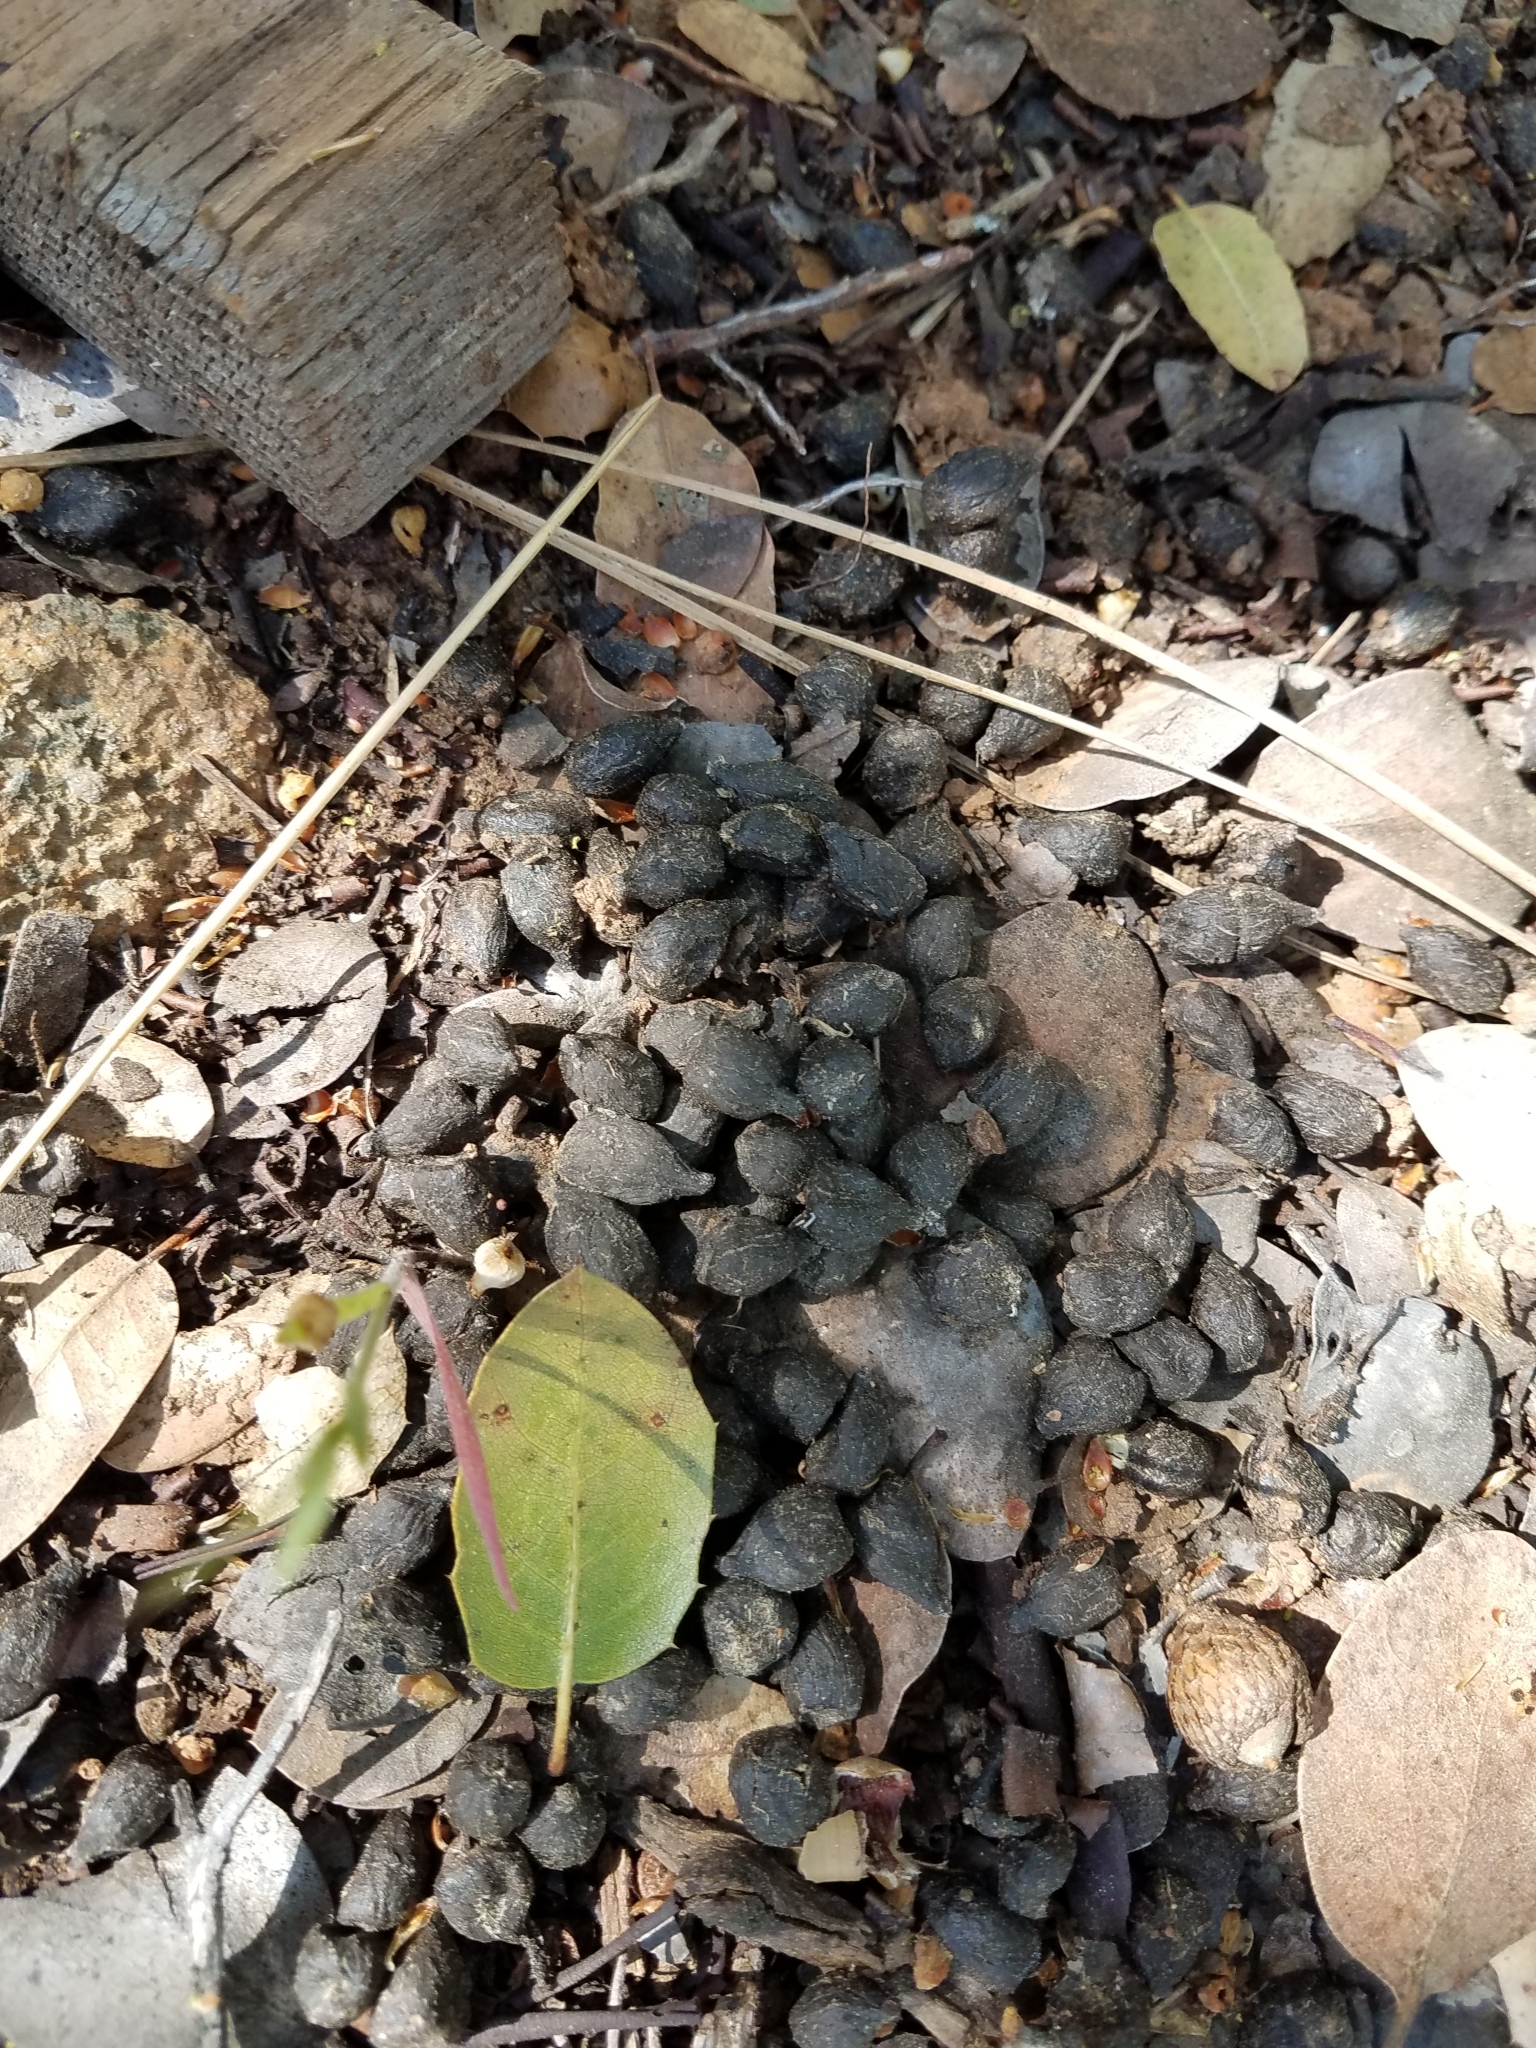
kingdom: Animalia
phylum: Chordata
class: Mammalia
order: Artiodactyla
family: Cervidae
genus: Odocoileus
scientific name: Odocoileus hemionus
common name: Mule deer
